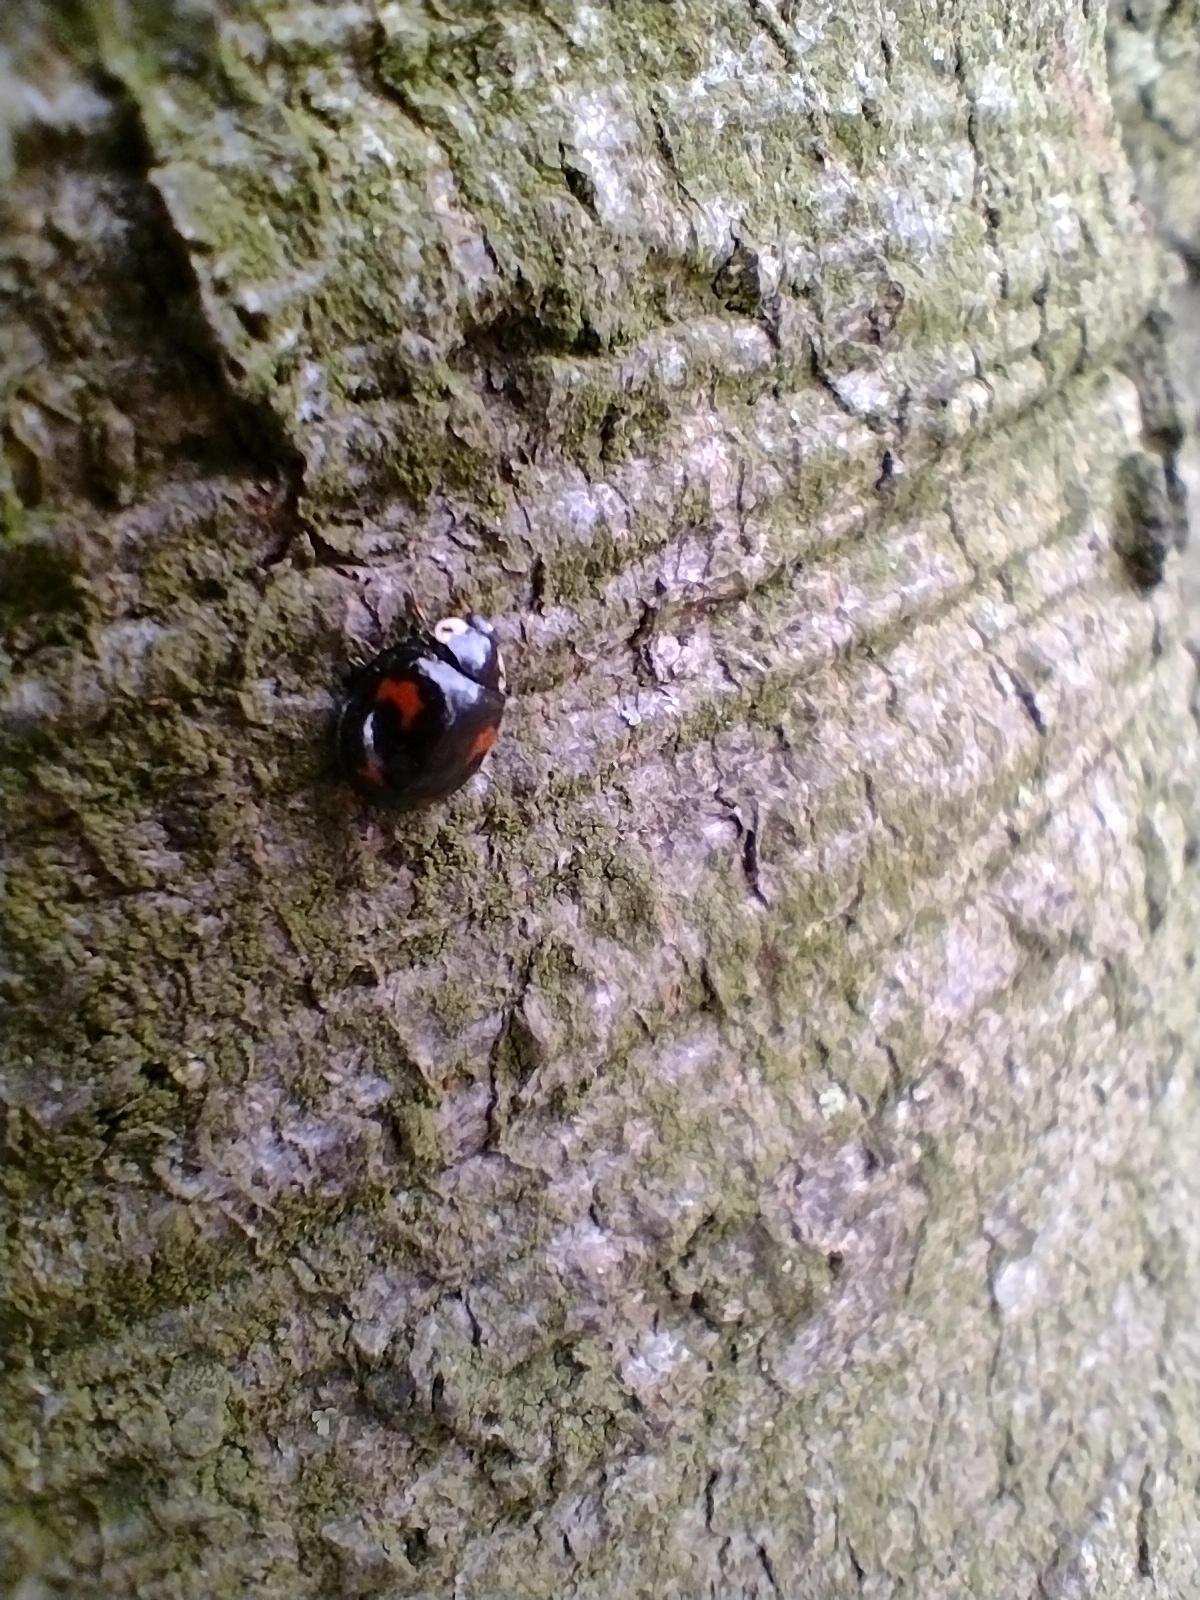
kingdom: Animalia
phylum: Arthropoda
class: Insecta
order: Coleoptera
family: Coccinellidae
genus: Harmonia
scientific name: Harmonia axyridis
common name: Harlequin ladybird
